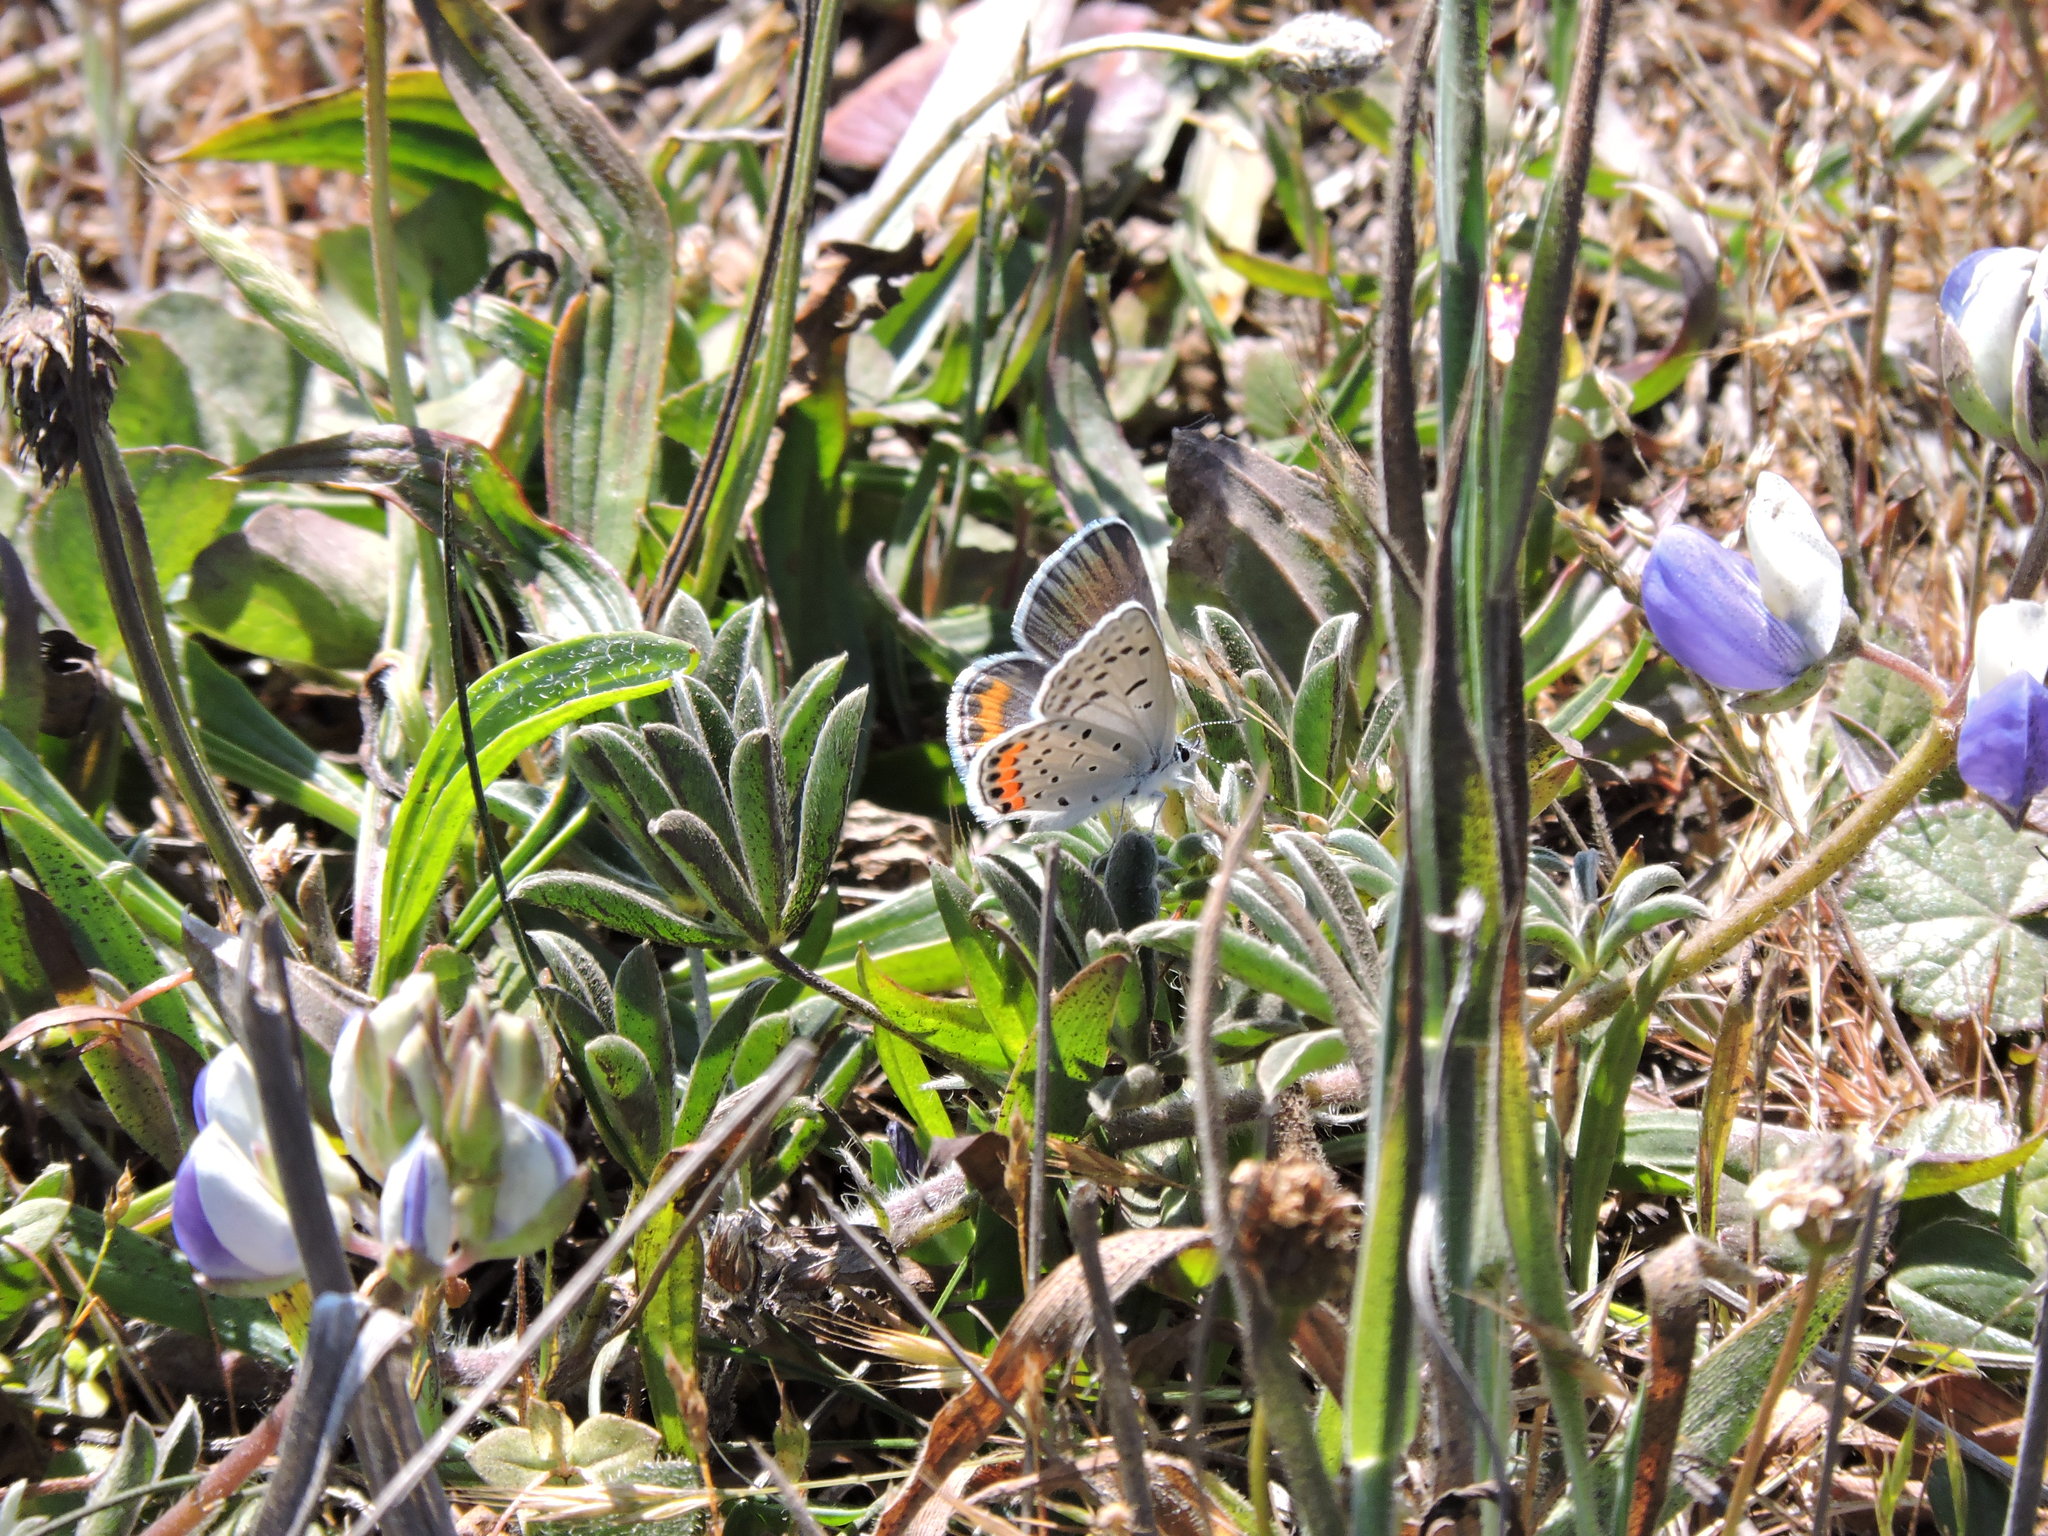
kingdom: Animalia
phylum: Arthropoda
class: Insecta
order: Lepidoptera
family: Lycaenidae
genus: Icaricia
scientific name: Icaricia acmon
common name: Acmon blue
